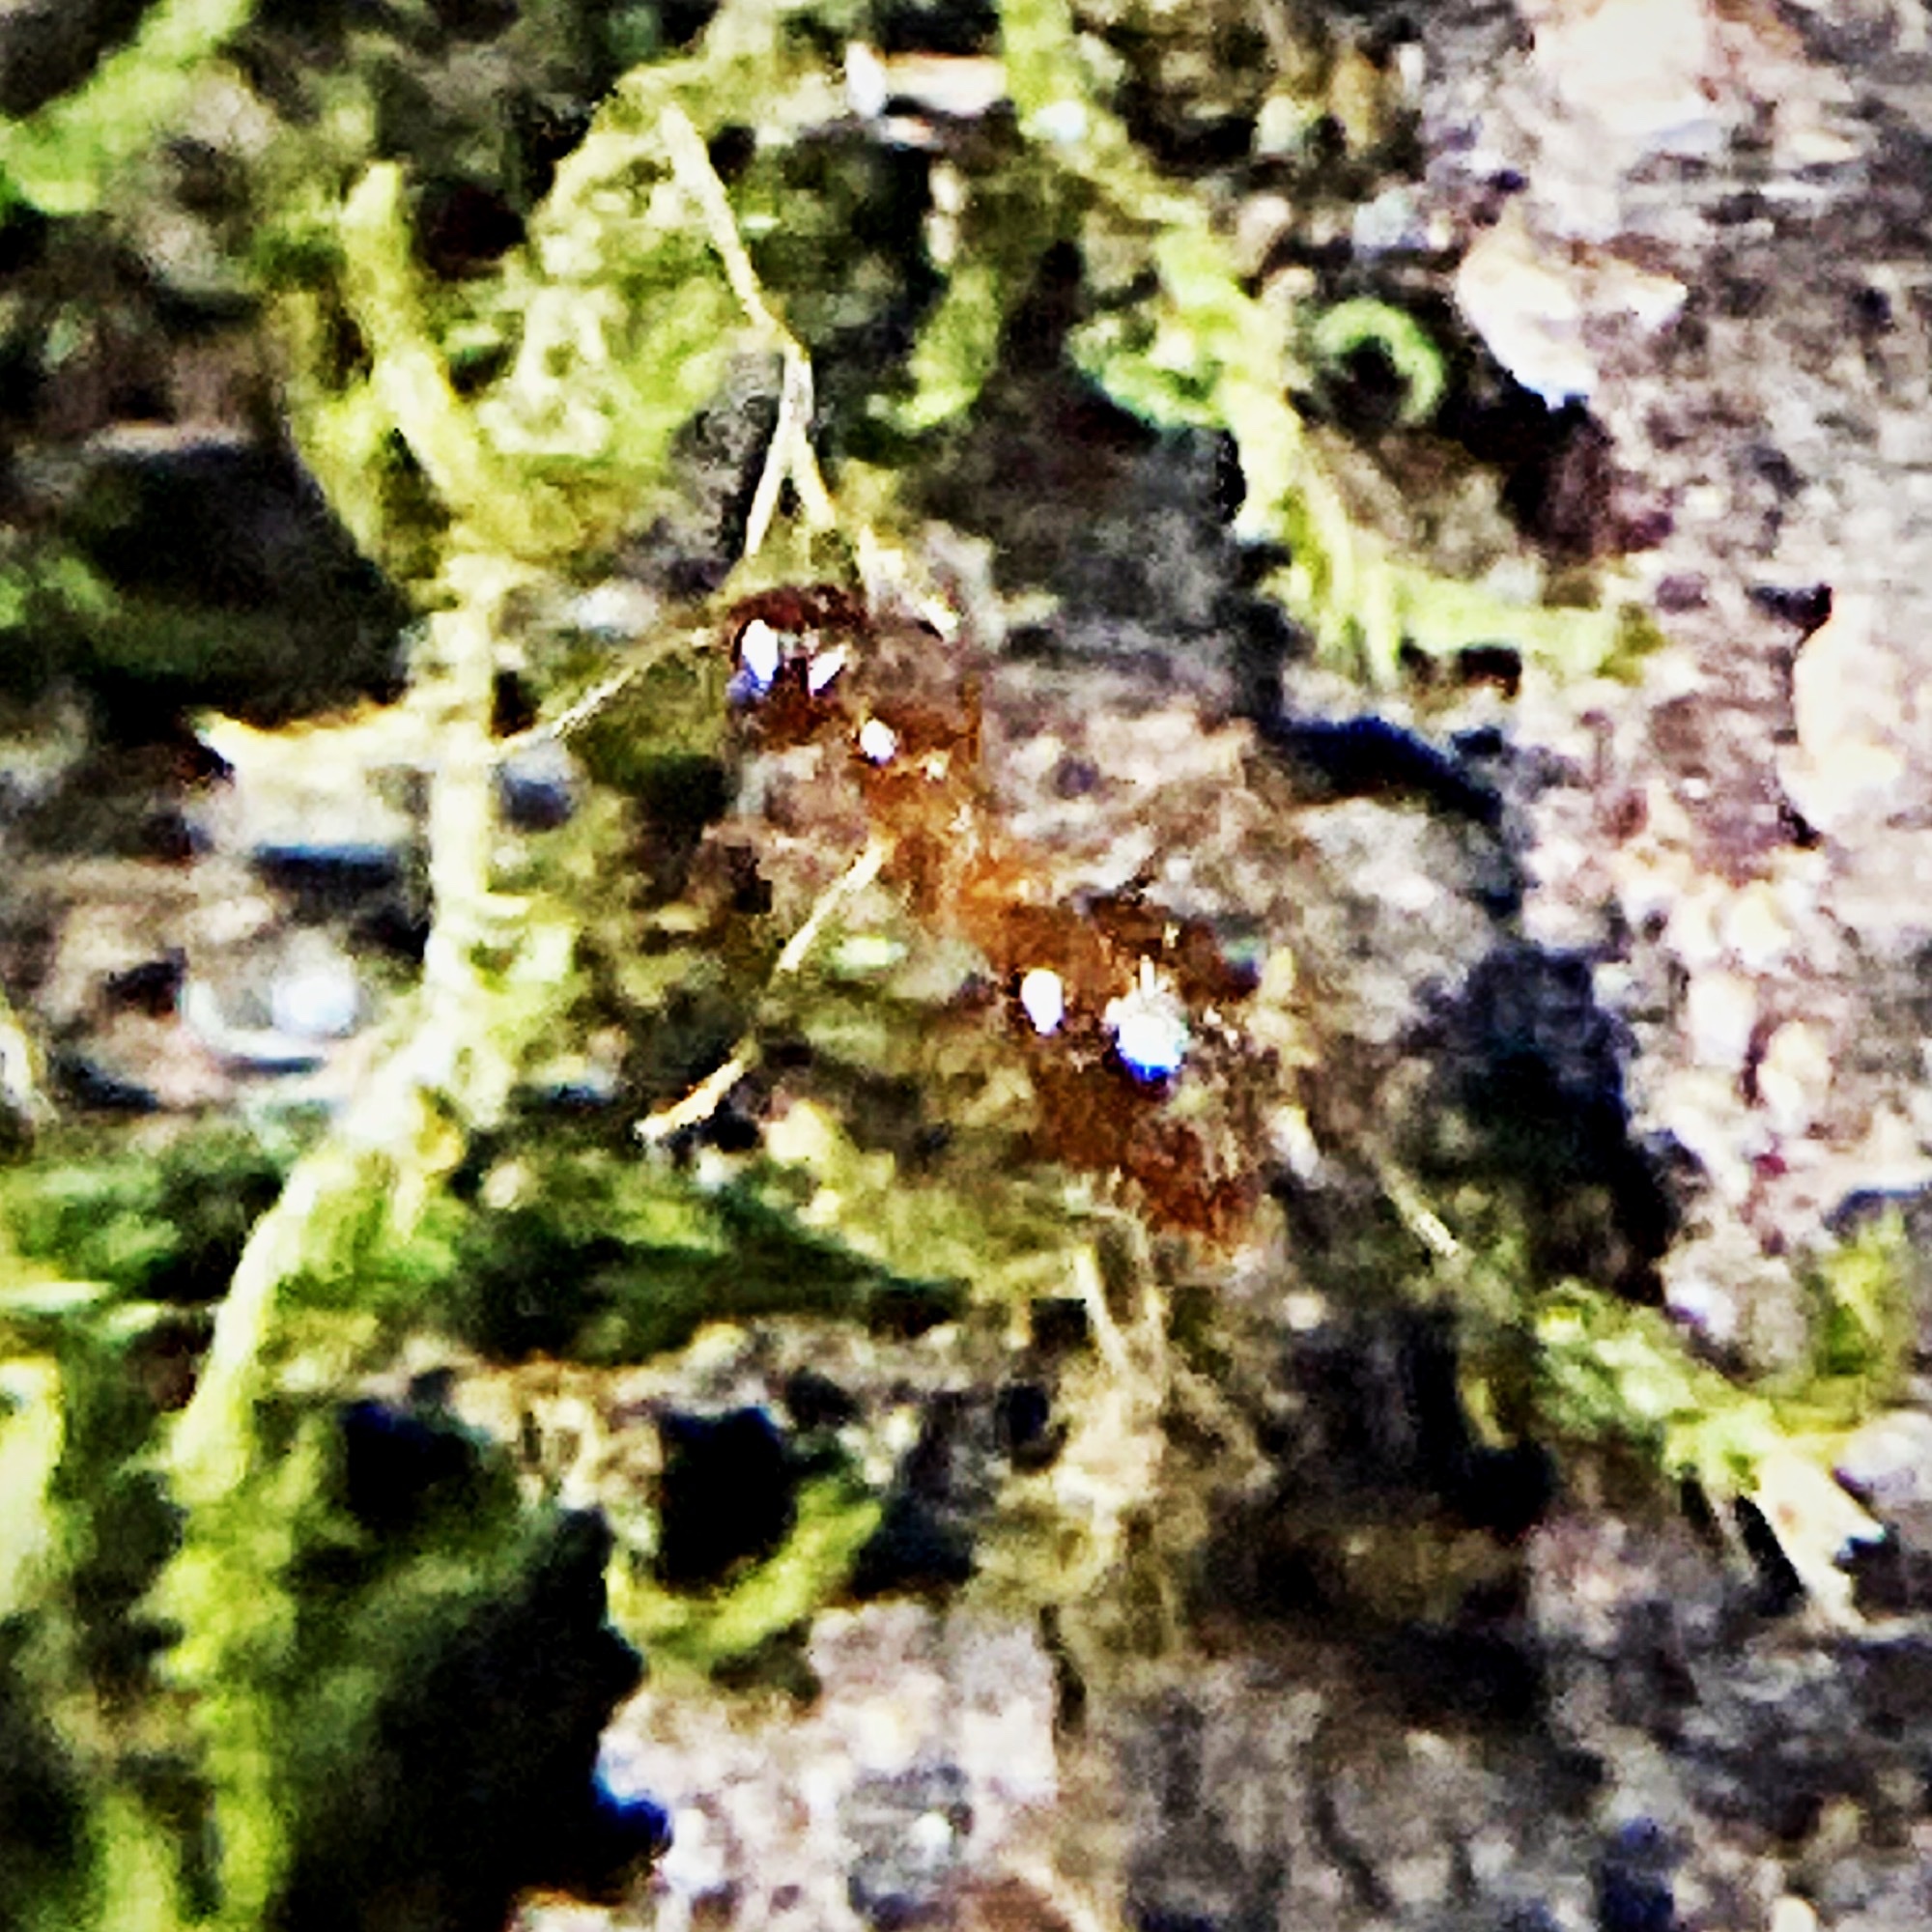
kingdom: Animalia
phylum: Arthropoda
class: Insecta
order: Hymenoptera
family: Formicidae
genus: Prenolepis
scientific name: Prenolepis imparis
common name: Small honey ant
